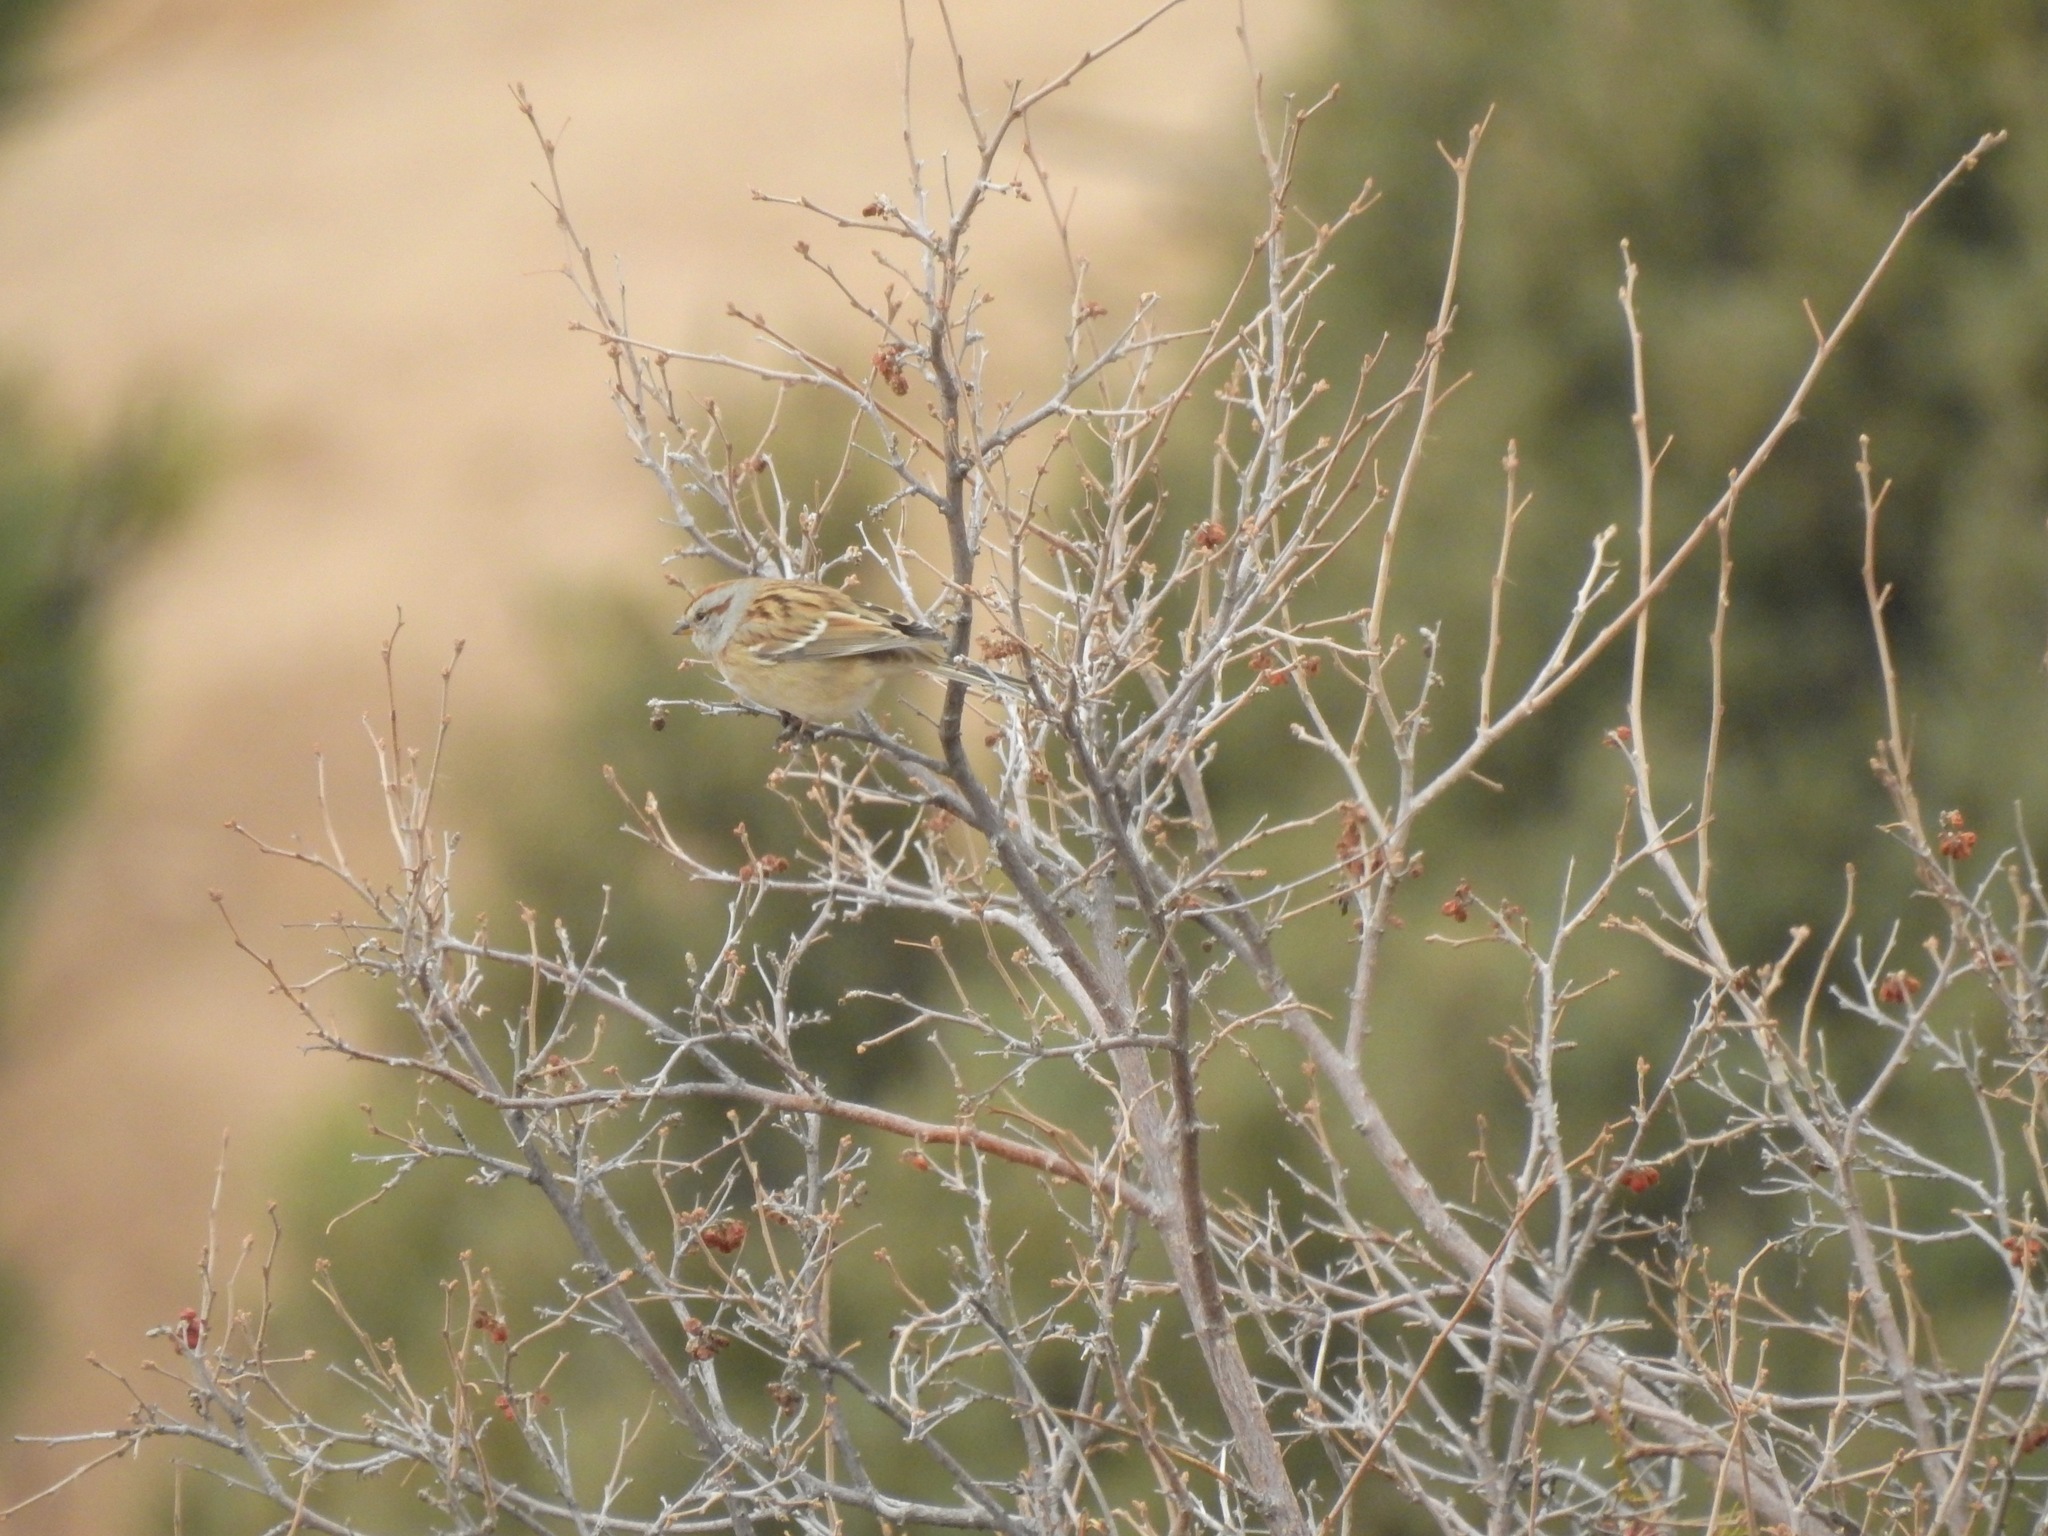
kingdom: Animalia
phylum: Chordata
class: Aves
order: Passeriformes
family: Passerellidae
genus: Spizelloides
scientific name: Spizelloides arborea
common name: American tree sparrow
